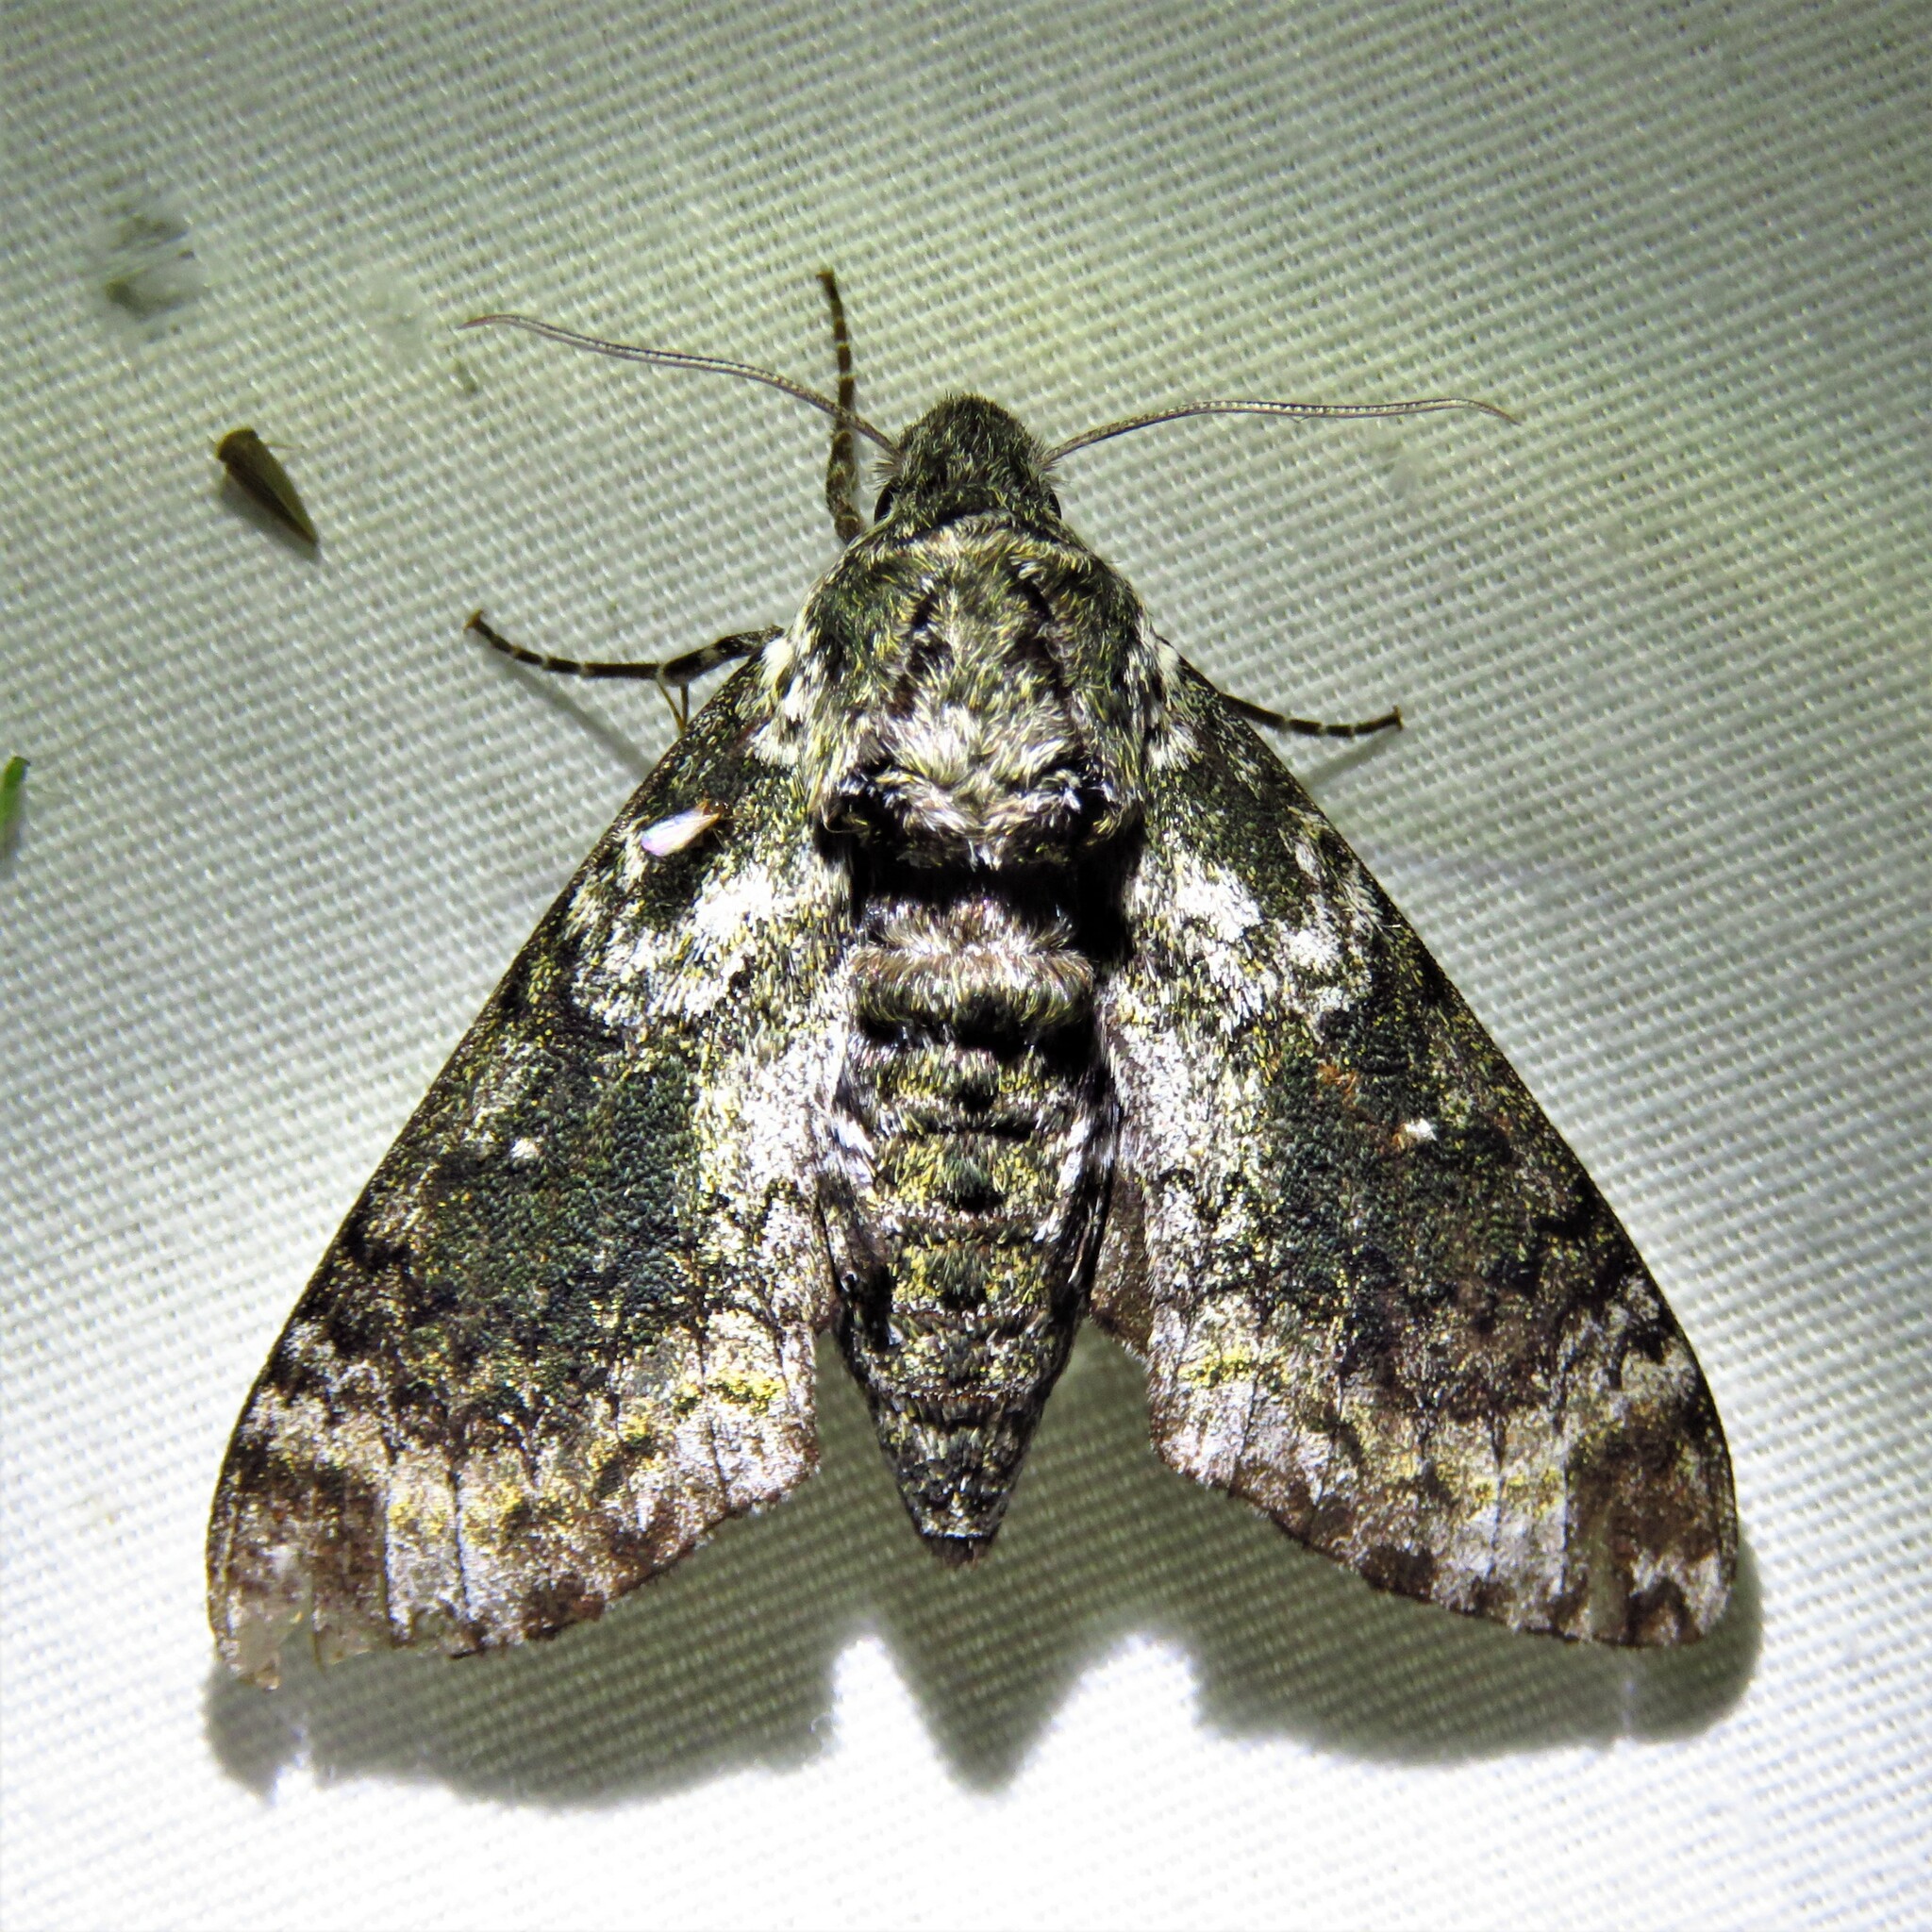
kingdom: Animalia
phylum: Arthropoda
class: Insecta
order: Lepidoptera
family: Sphingidae
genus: Dolba
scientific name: Dolba hyloeus
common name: Pawpaw sphinx
